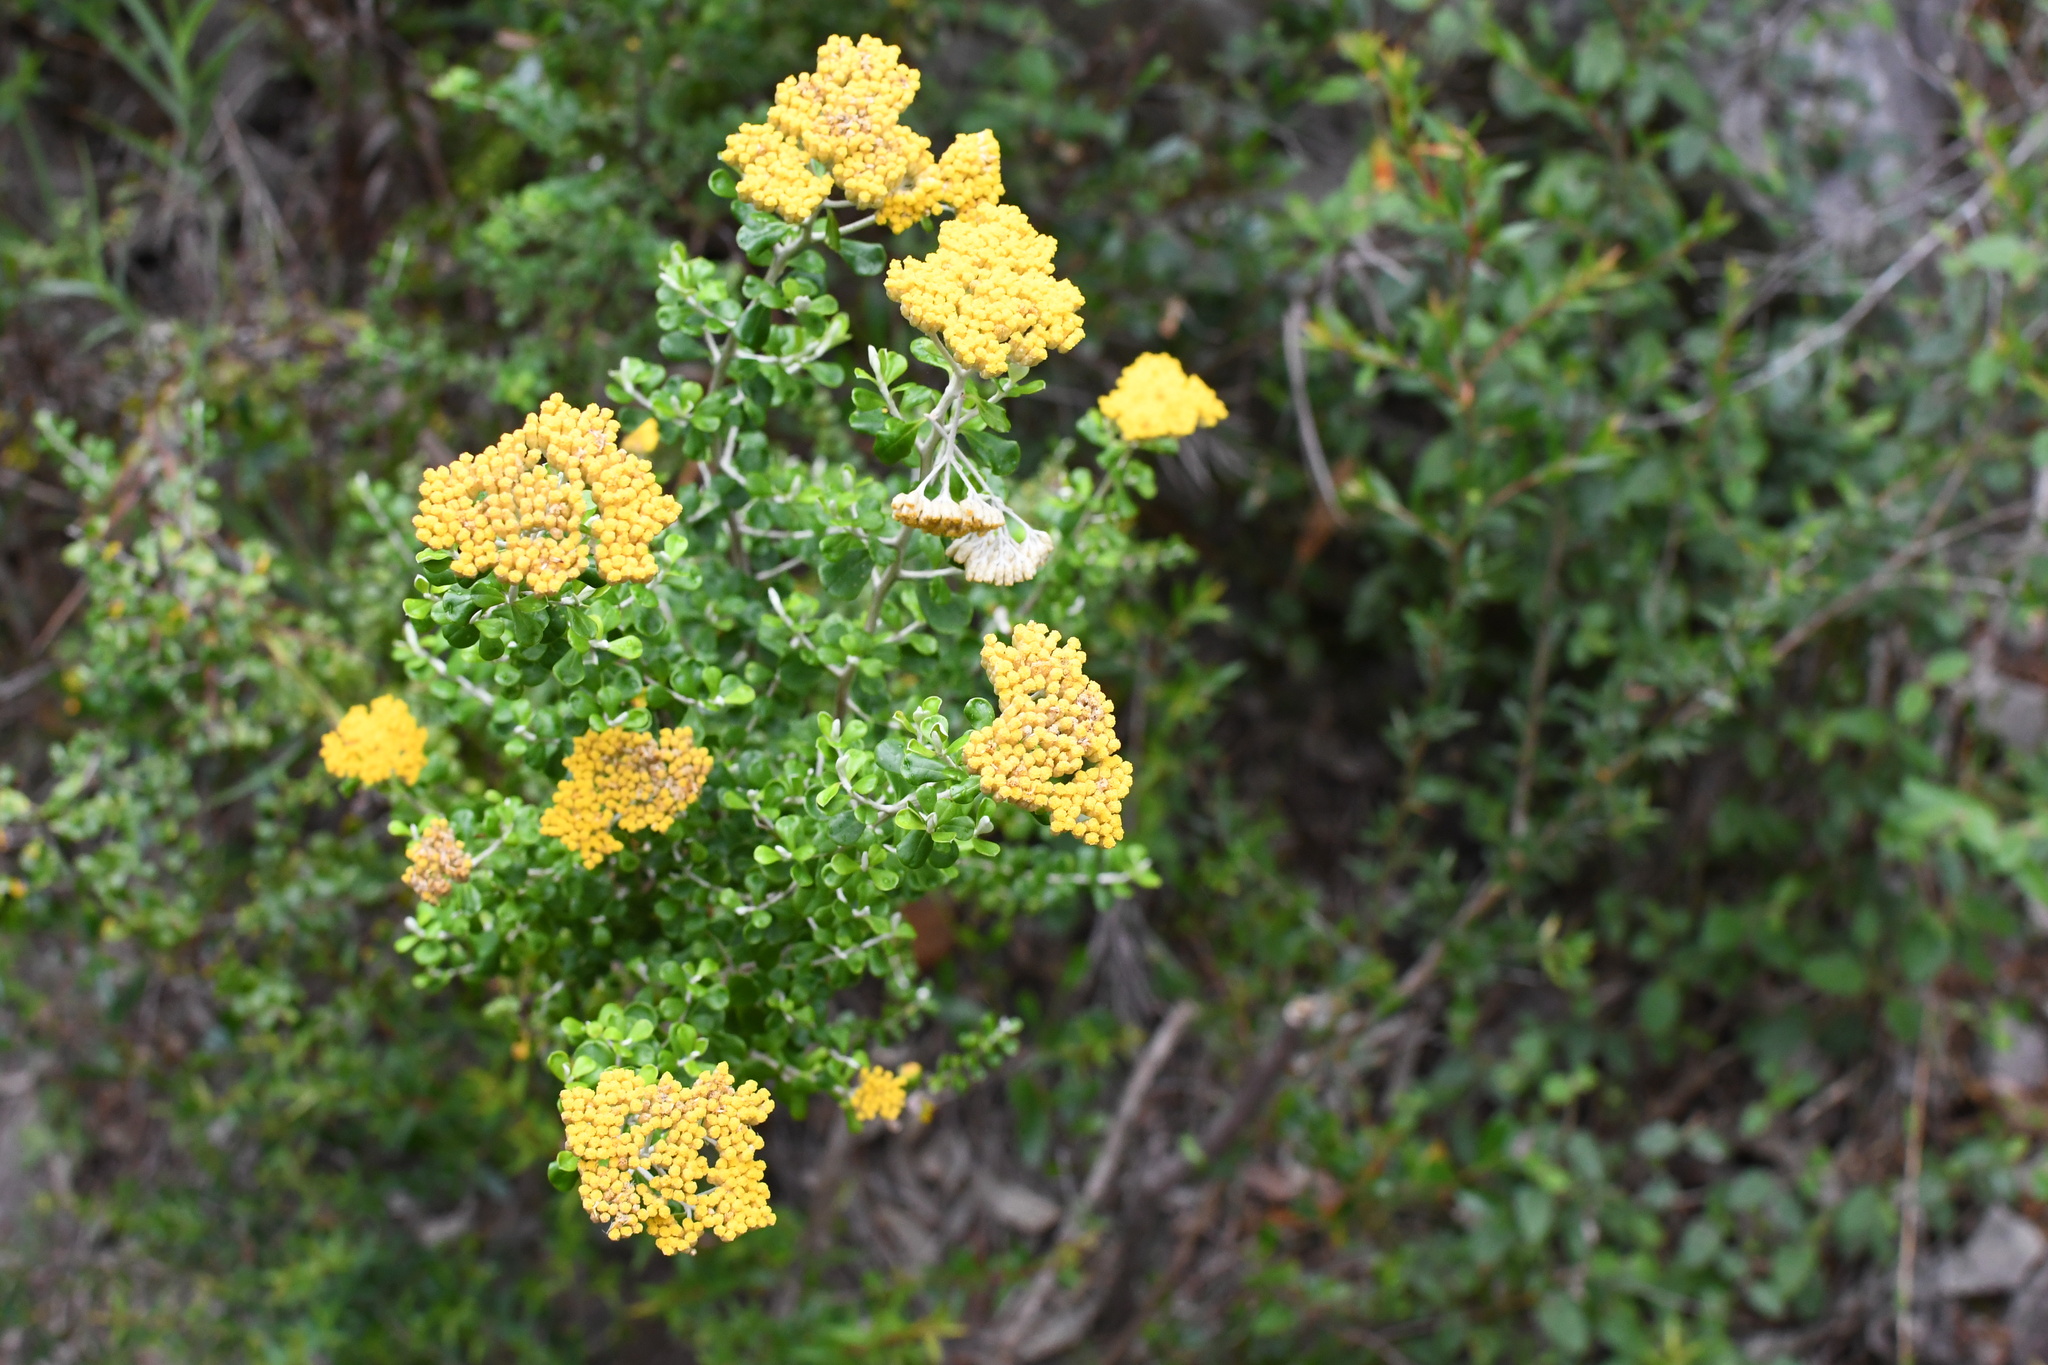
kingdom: Plantae
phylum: Tracheophyta
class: Magnoliopsida
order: Asterales
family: Asteraceae
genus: Ozothamnus
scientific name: Ozothamnus obcordatus
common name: Grey everlasting
